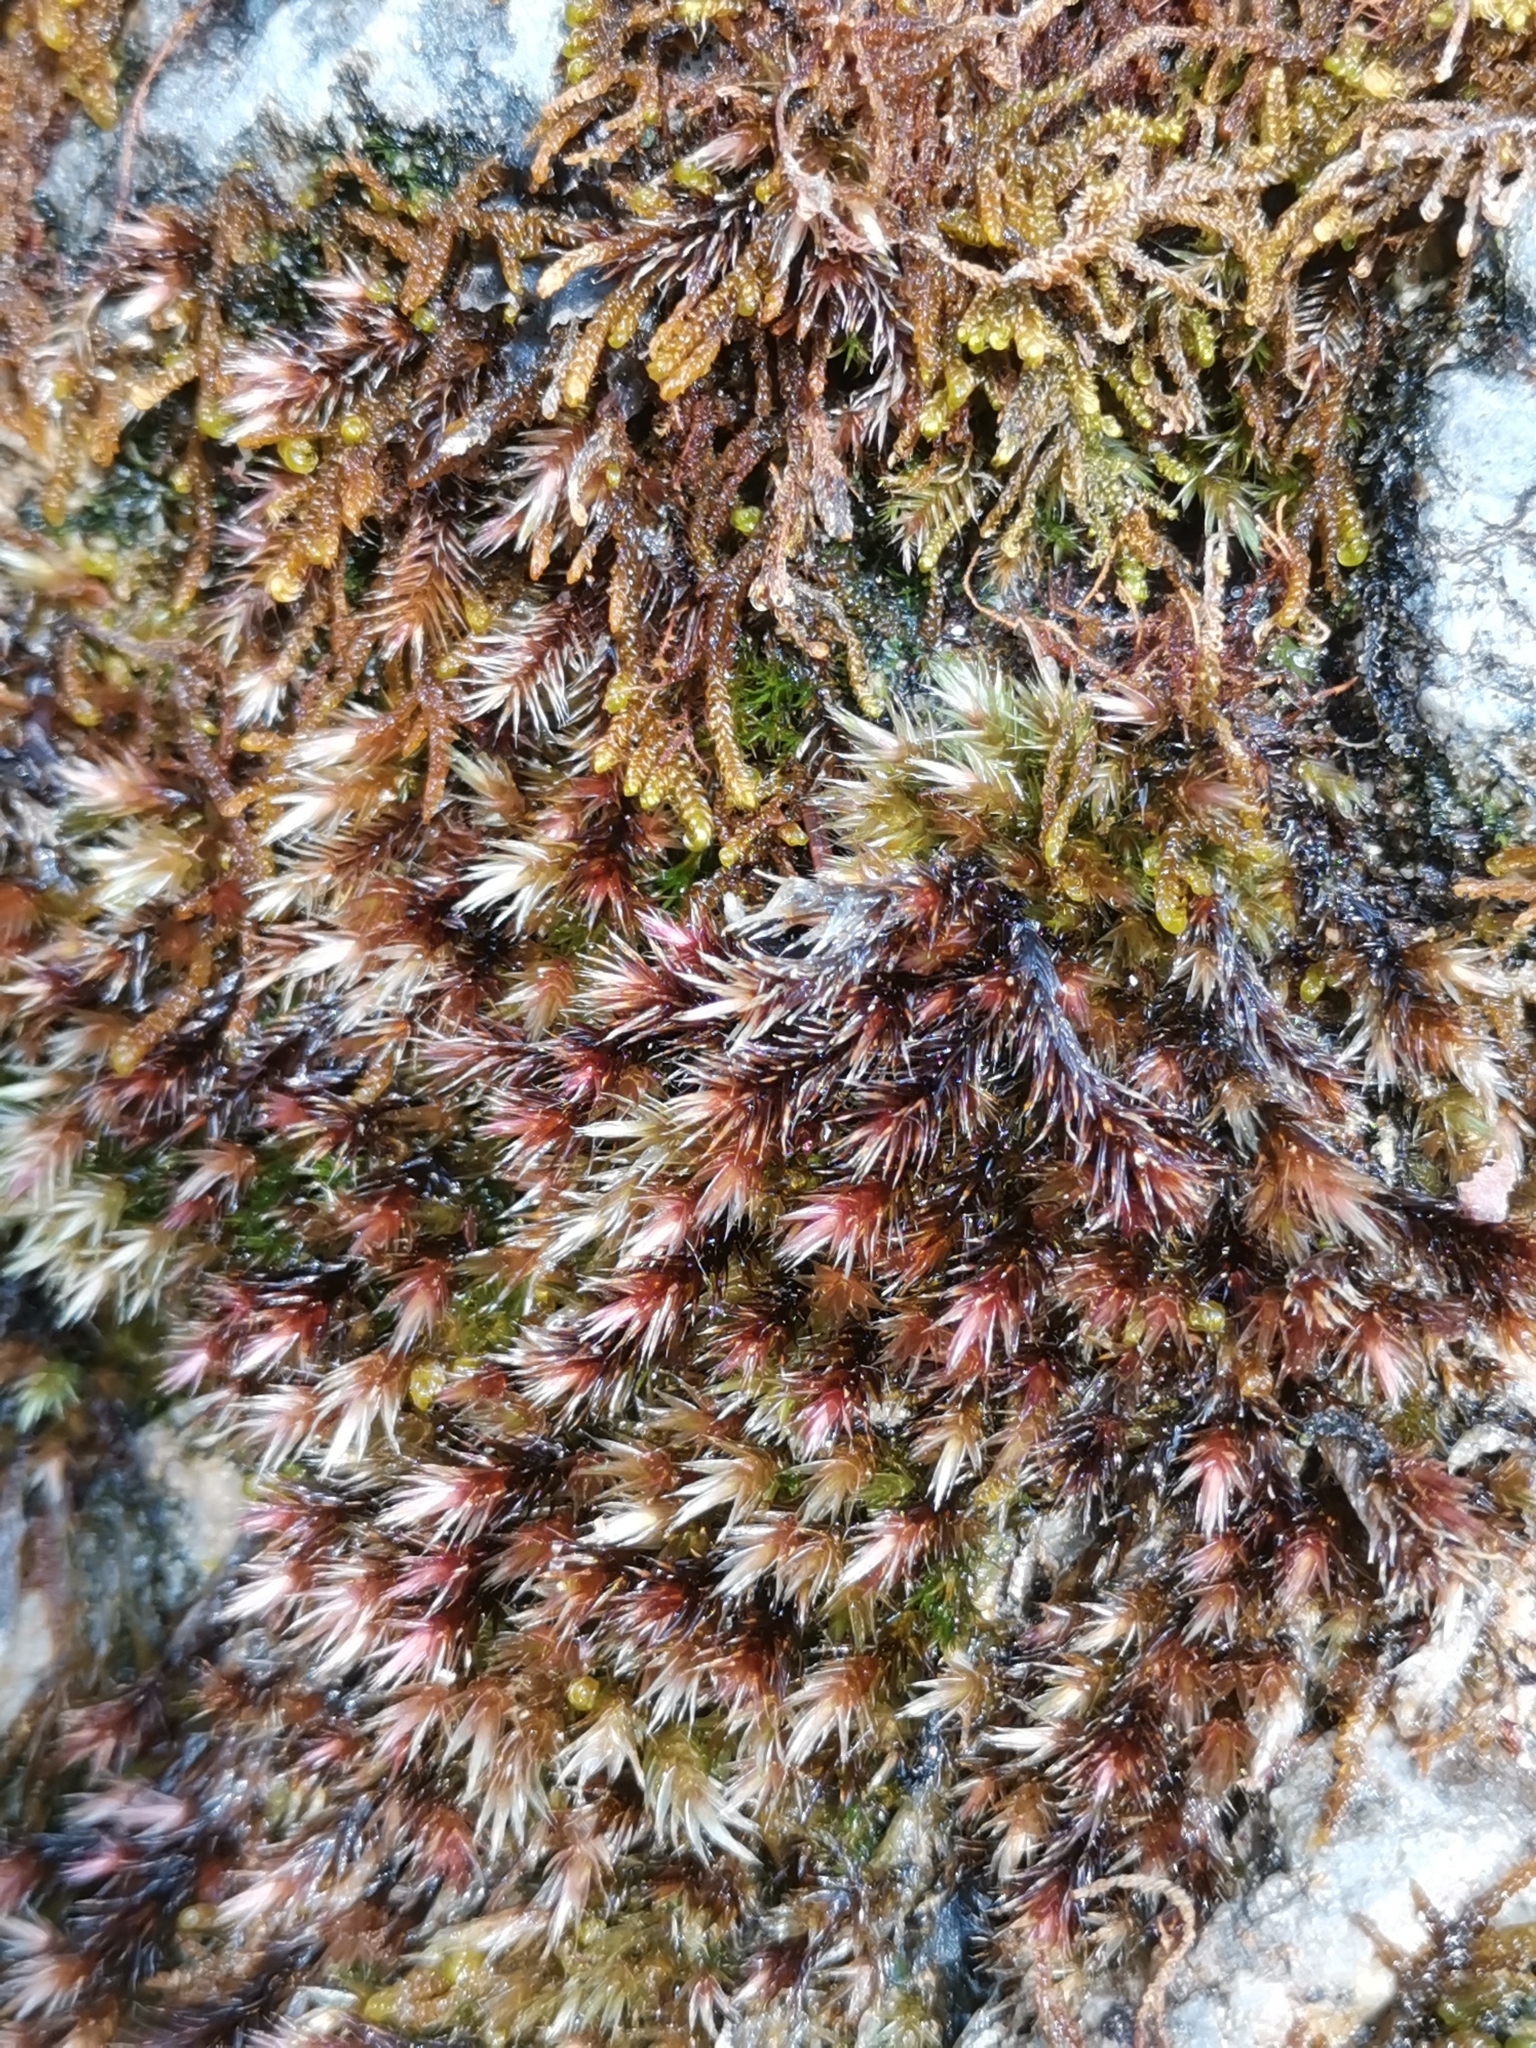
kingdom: Plantae
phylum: Bryophyta
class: Bryopsida
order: Hypnales
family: Plagiotheciaceae
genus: Orthothecium
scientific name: Orthothecium rufescens
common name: Red leskea
